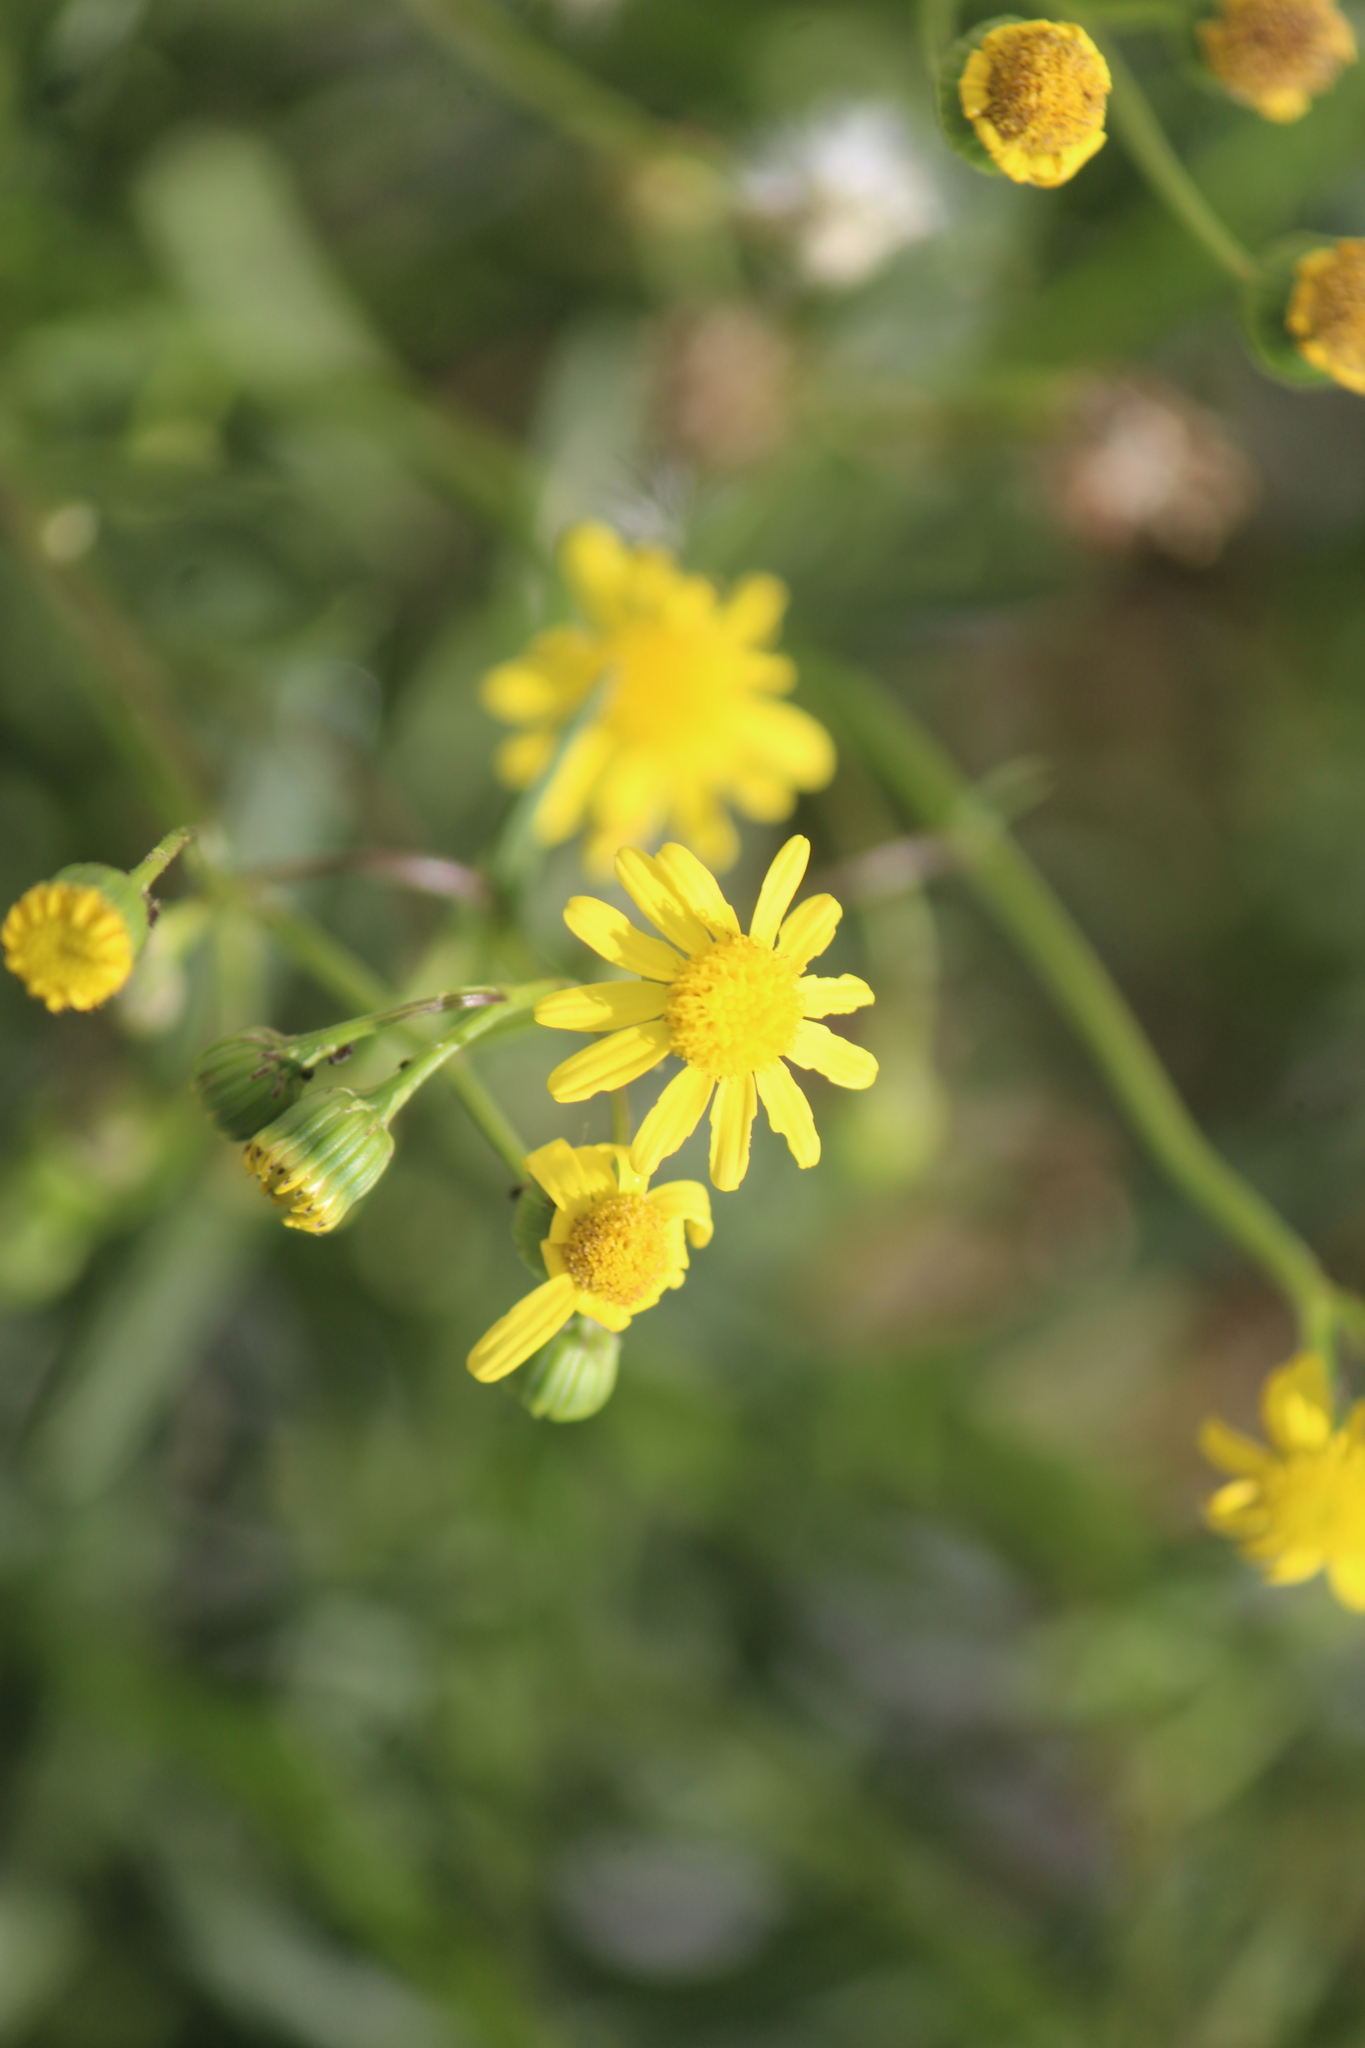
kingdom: Plantae
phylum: Tracheophyta
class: Magnoliopsida
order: Asterales
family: Asteraceae
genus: Senecio
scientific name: Senecio inaequidens
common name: Narrow-leaved ragwort
